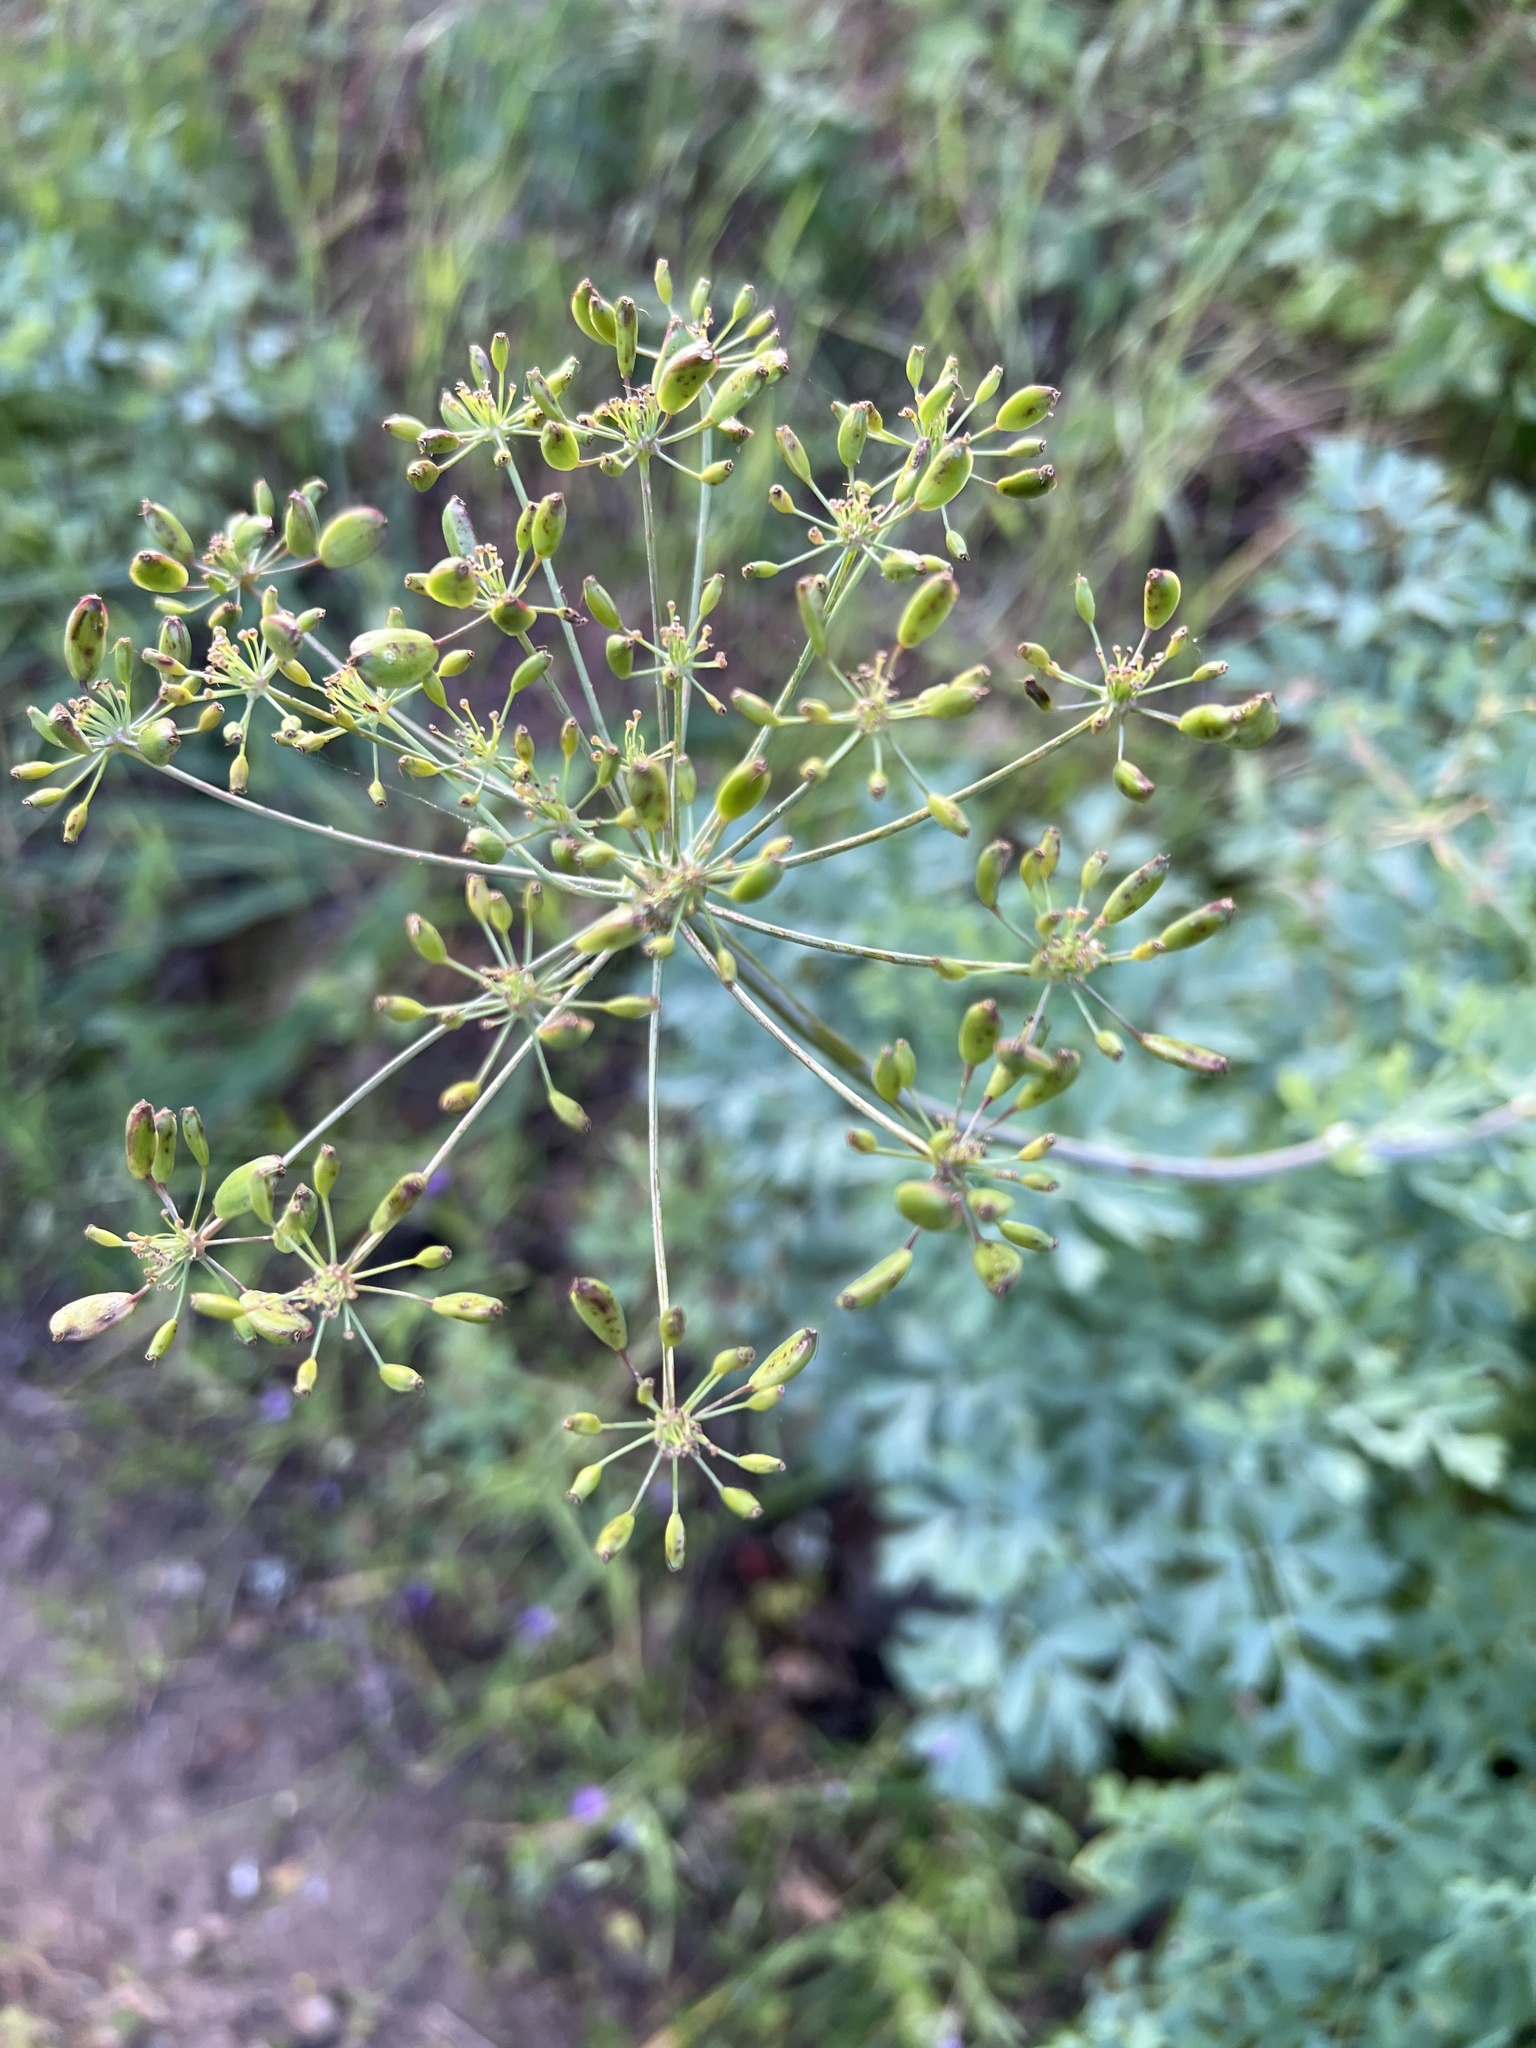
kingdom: Plantae
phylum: Tracheophyta
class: Magnoliopsida
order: Apiales
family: Apiaceae
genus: Lomatium
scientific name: Lomatium californicum
